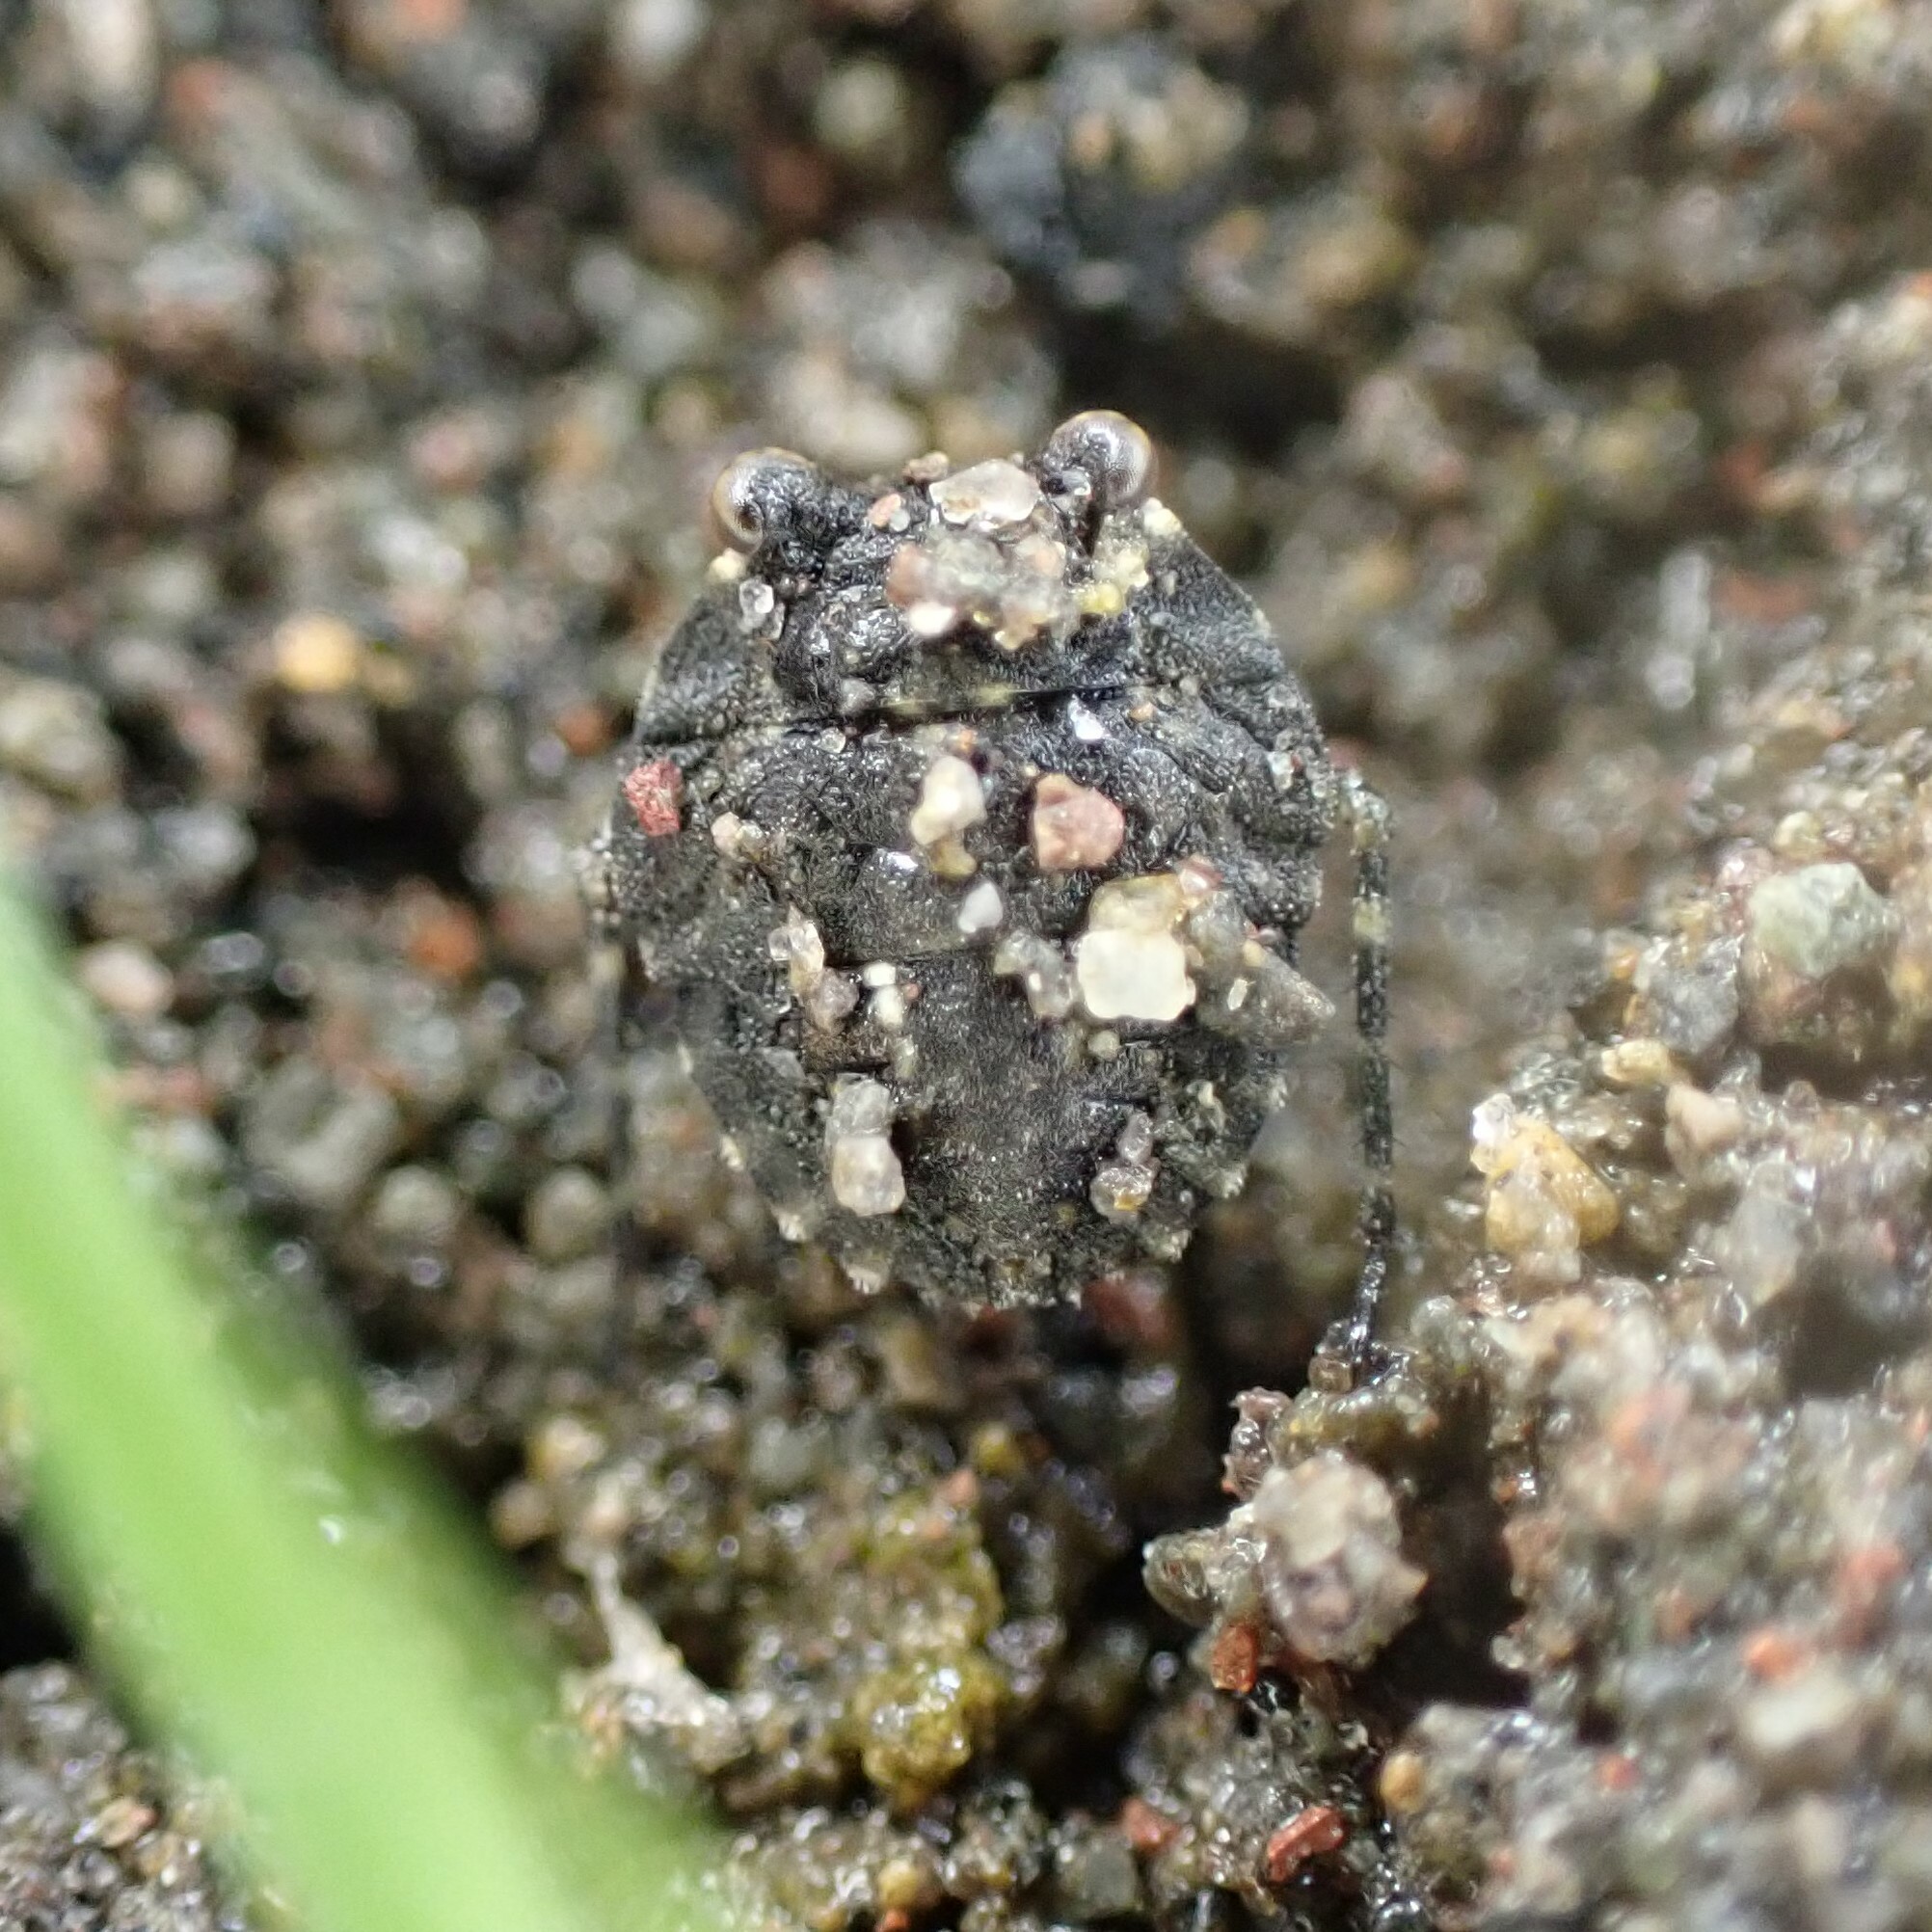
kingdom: Animalia
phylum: Arthropoda
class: Insecta
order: Hemiptera
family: Gelastocoridae
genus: Gelastocoris
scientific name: Gelastocoris oculatus
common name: Toad bug
